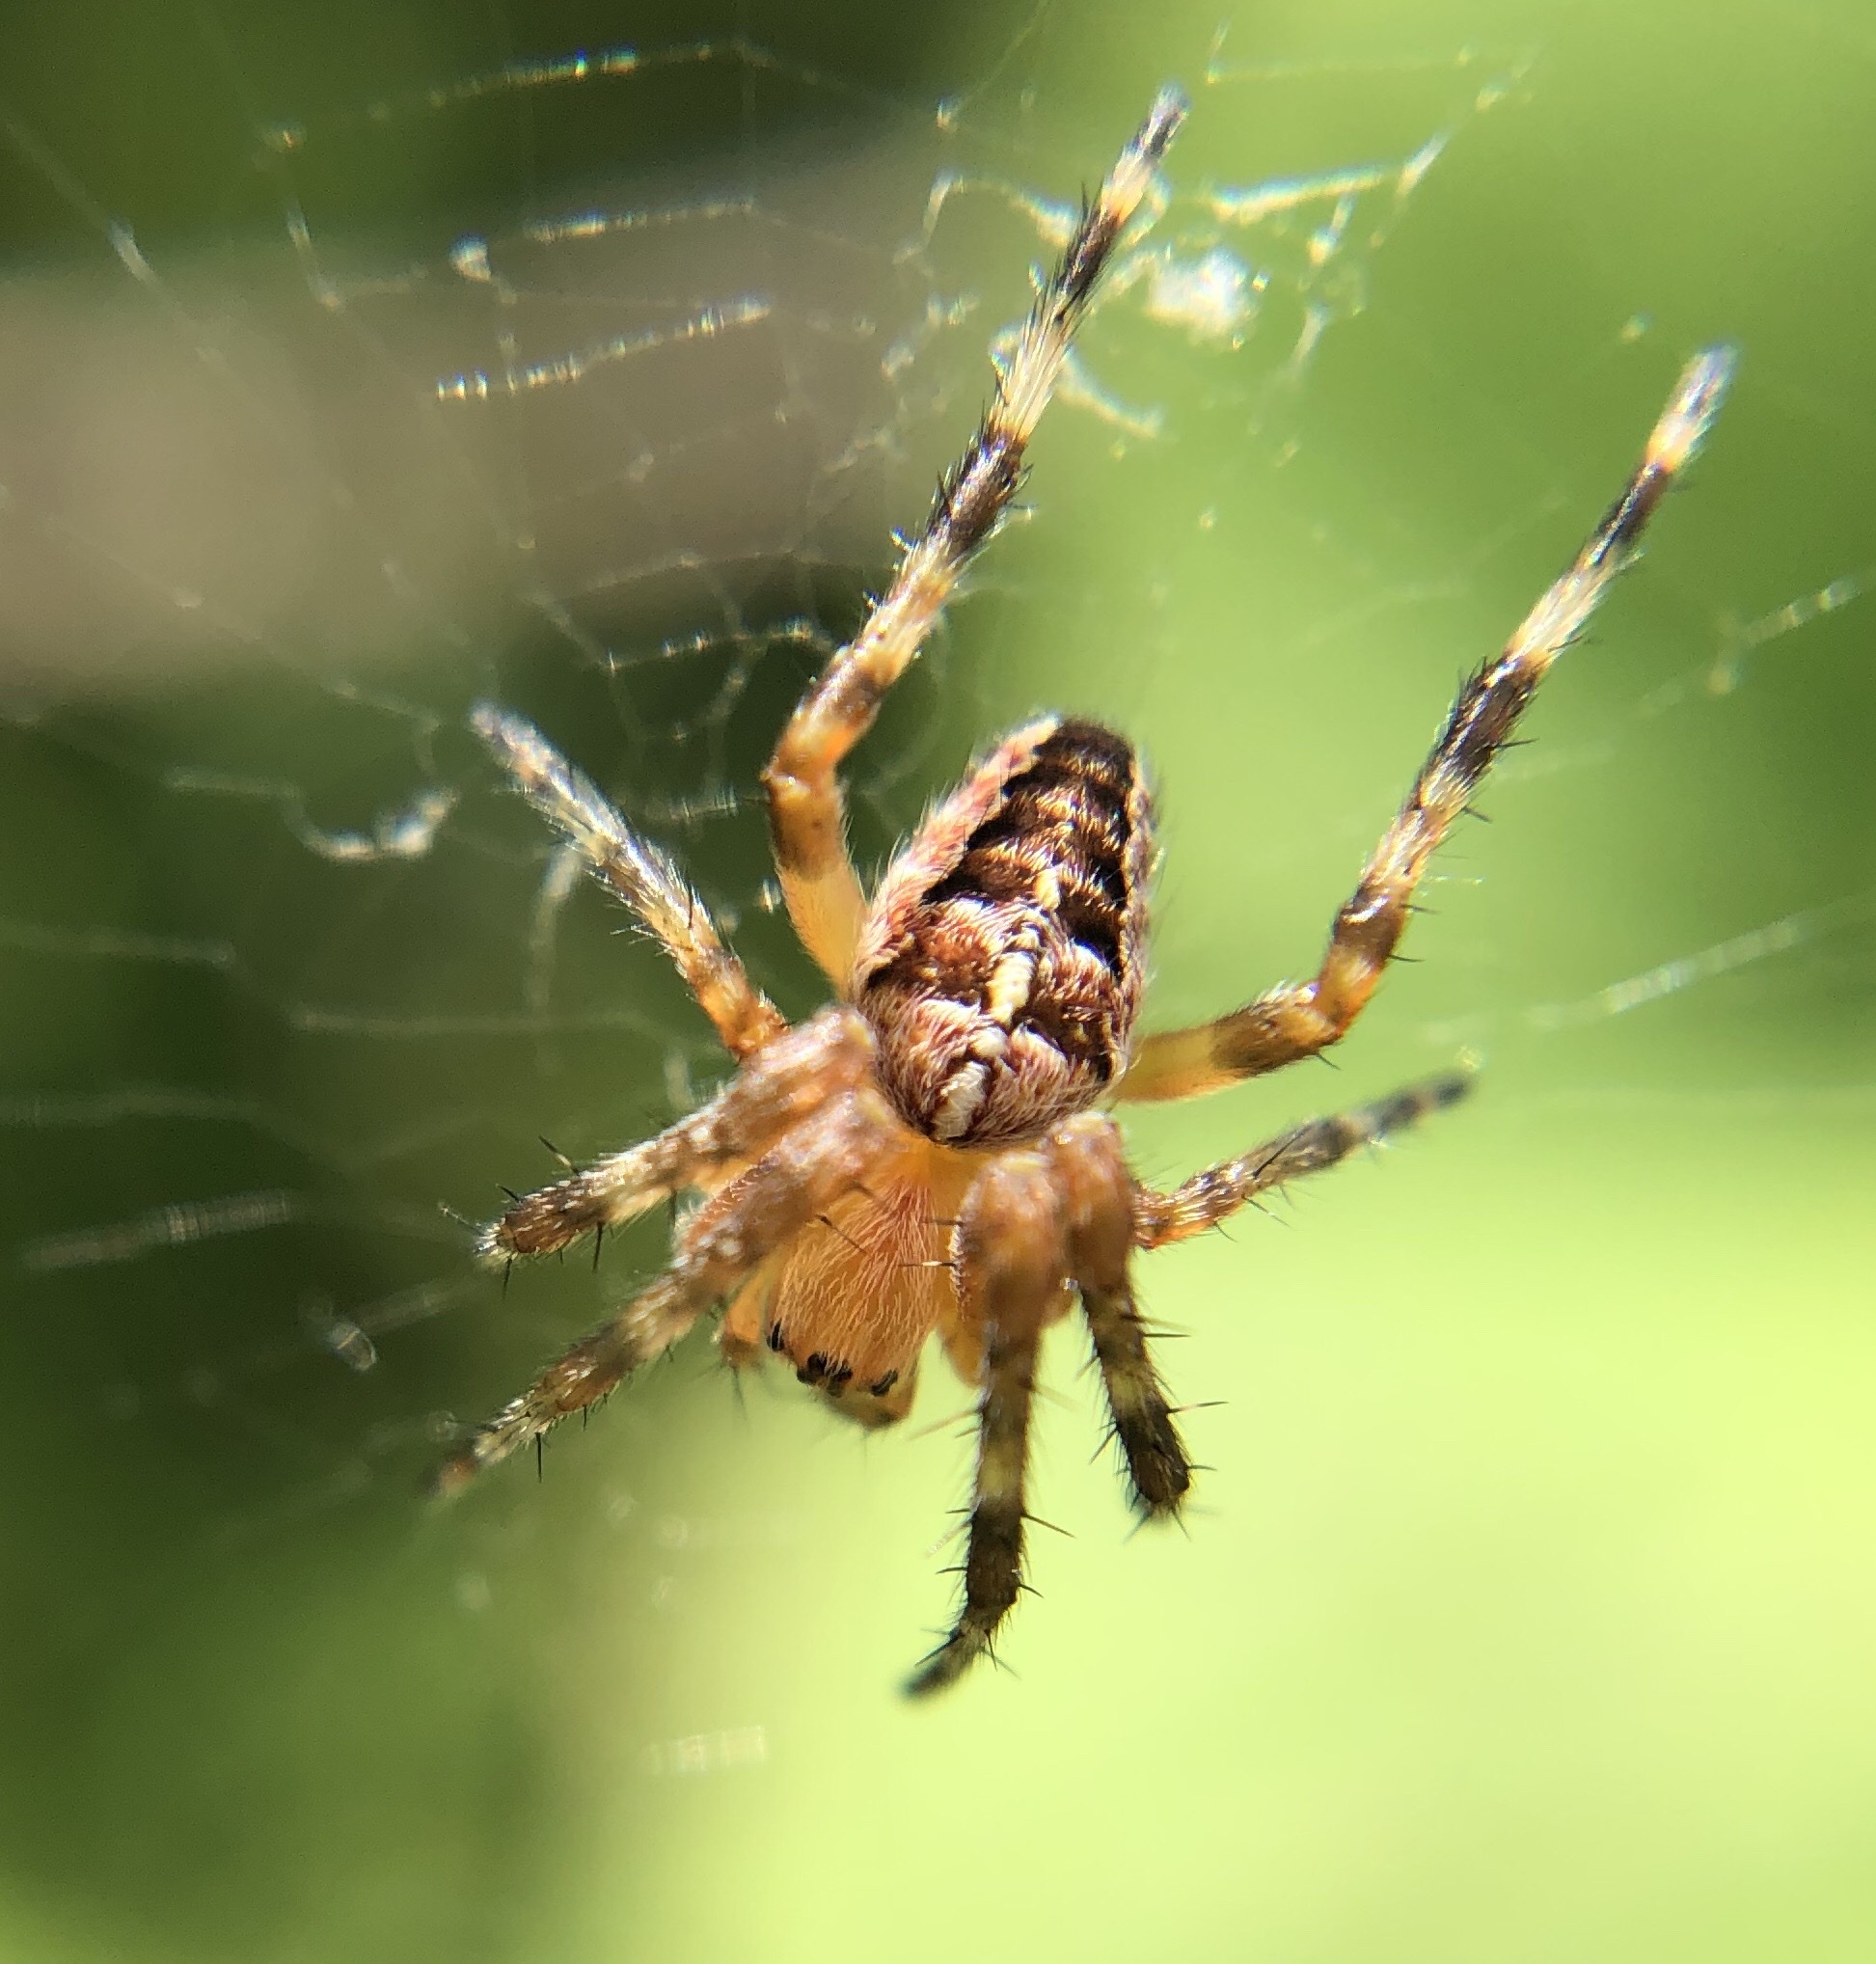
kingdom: Animalia
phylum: Arthropoda
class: Arachnida
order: Araneae
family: Araneidae
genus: Araneus
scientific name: Araneus diadematus
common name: Cross orbweaver
